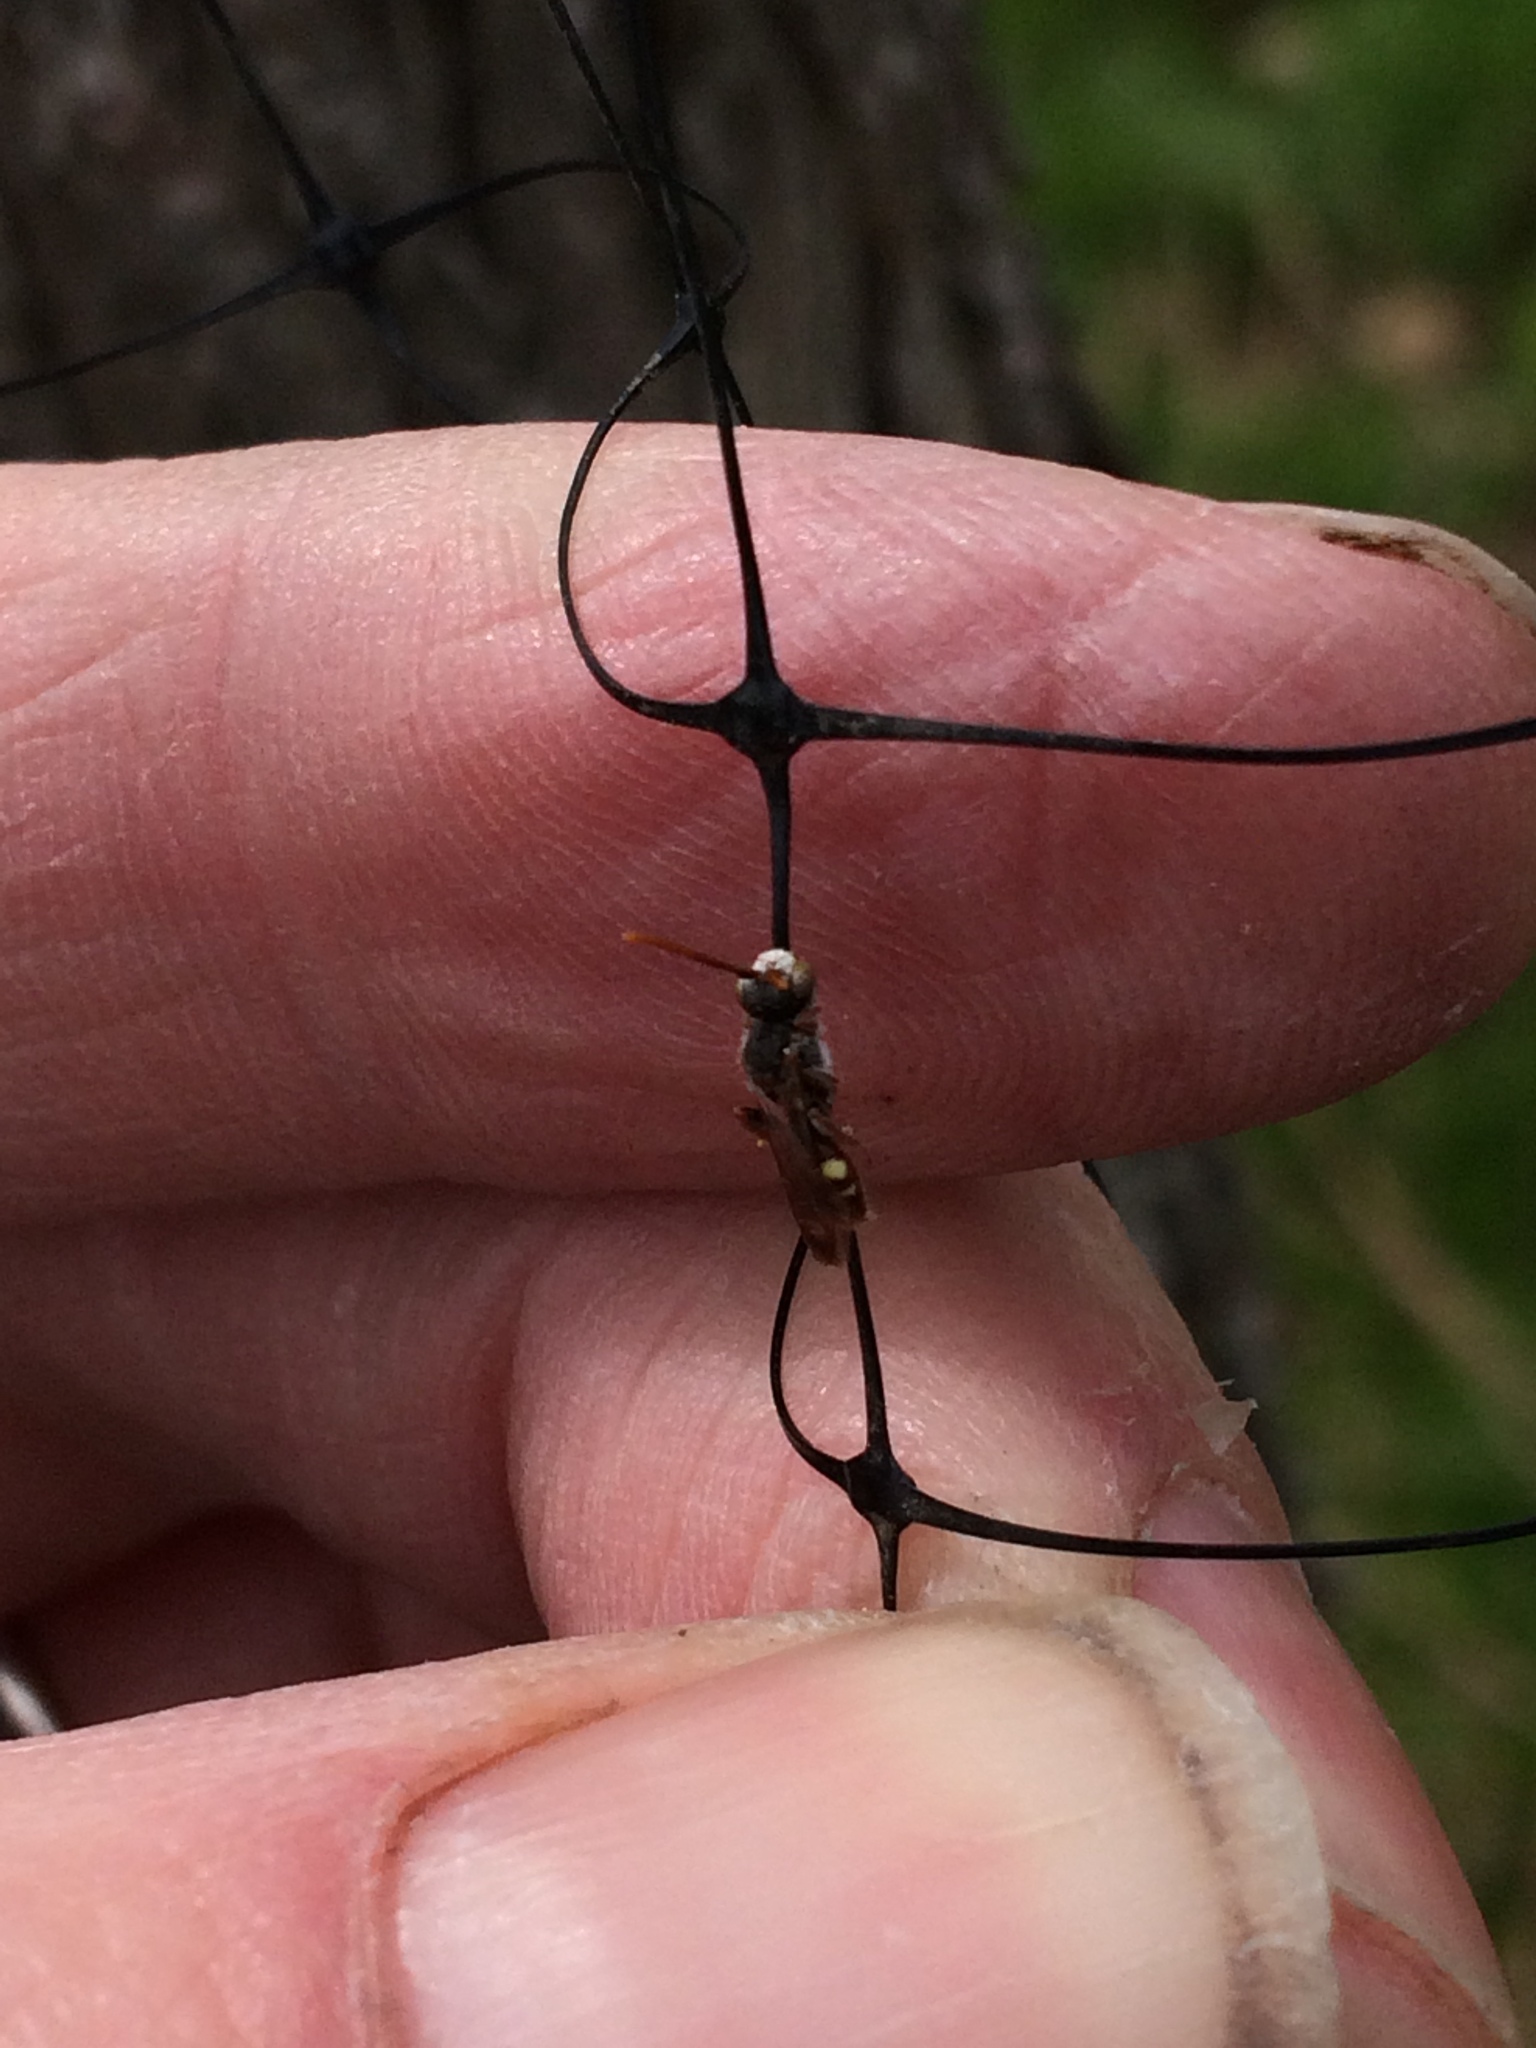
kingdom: Animalia
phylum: Arthropoda
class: Insecta
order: Hymenoptera
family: Apidae
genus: Nomada
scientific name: Nomada
